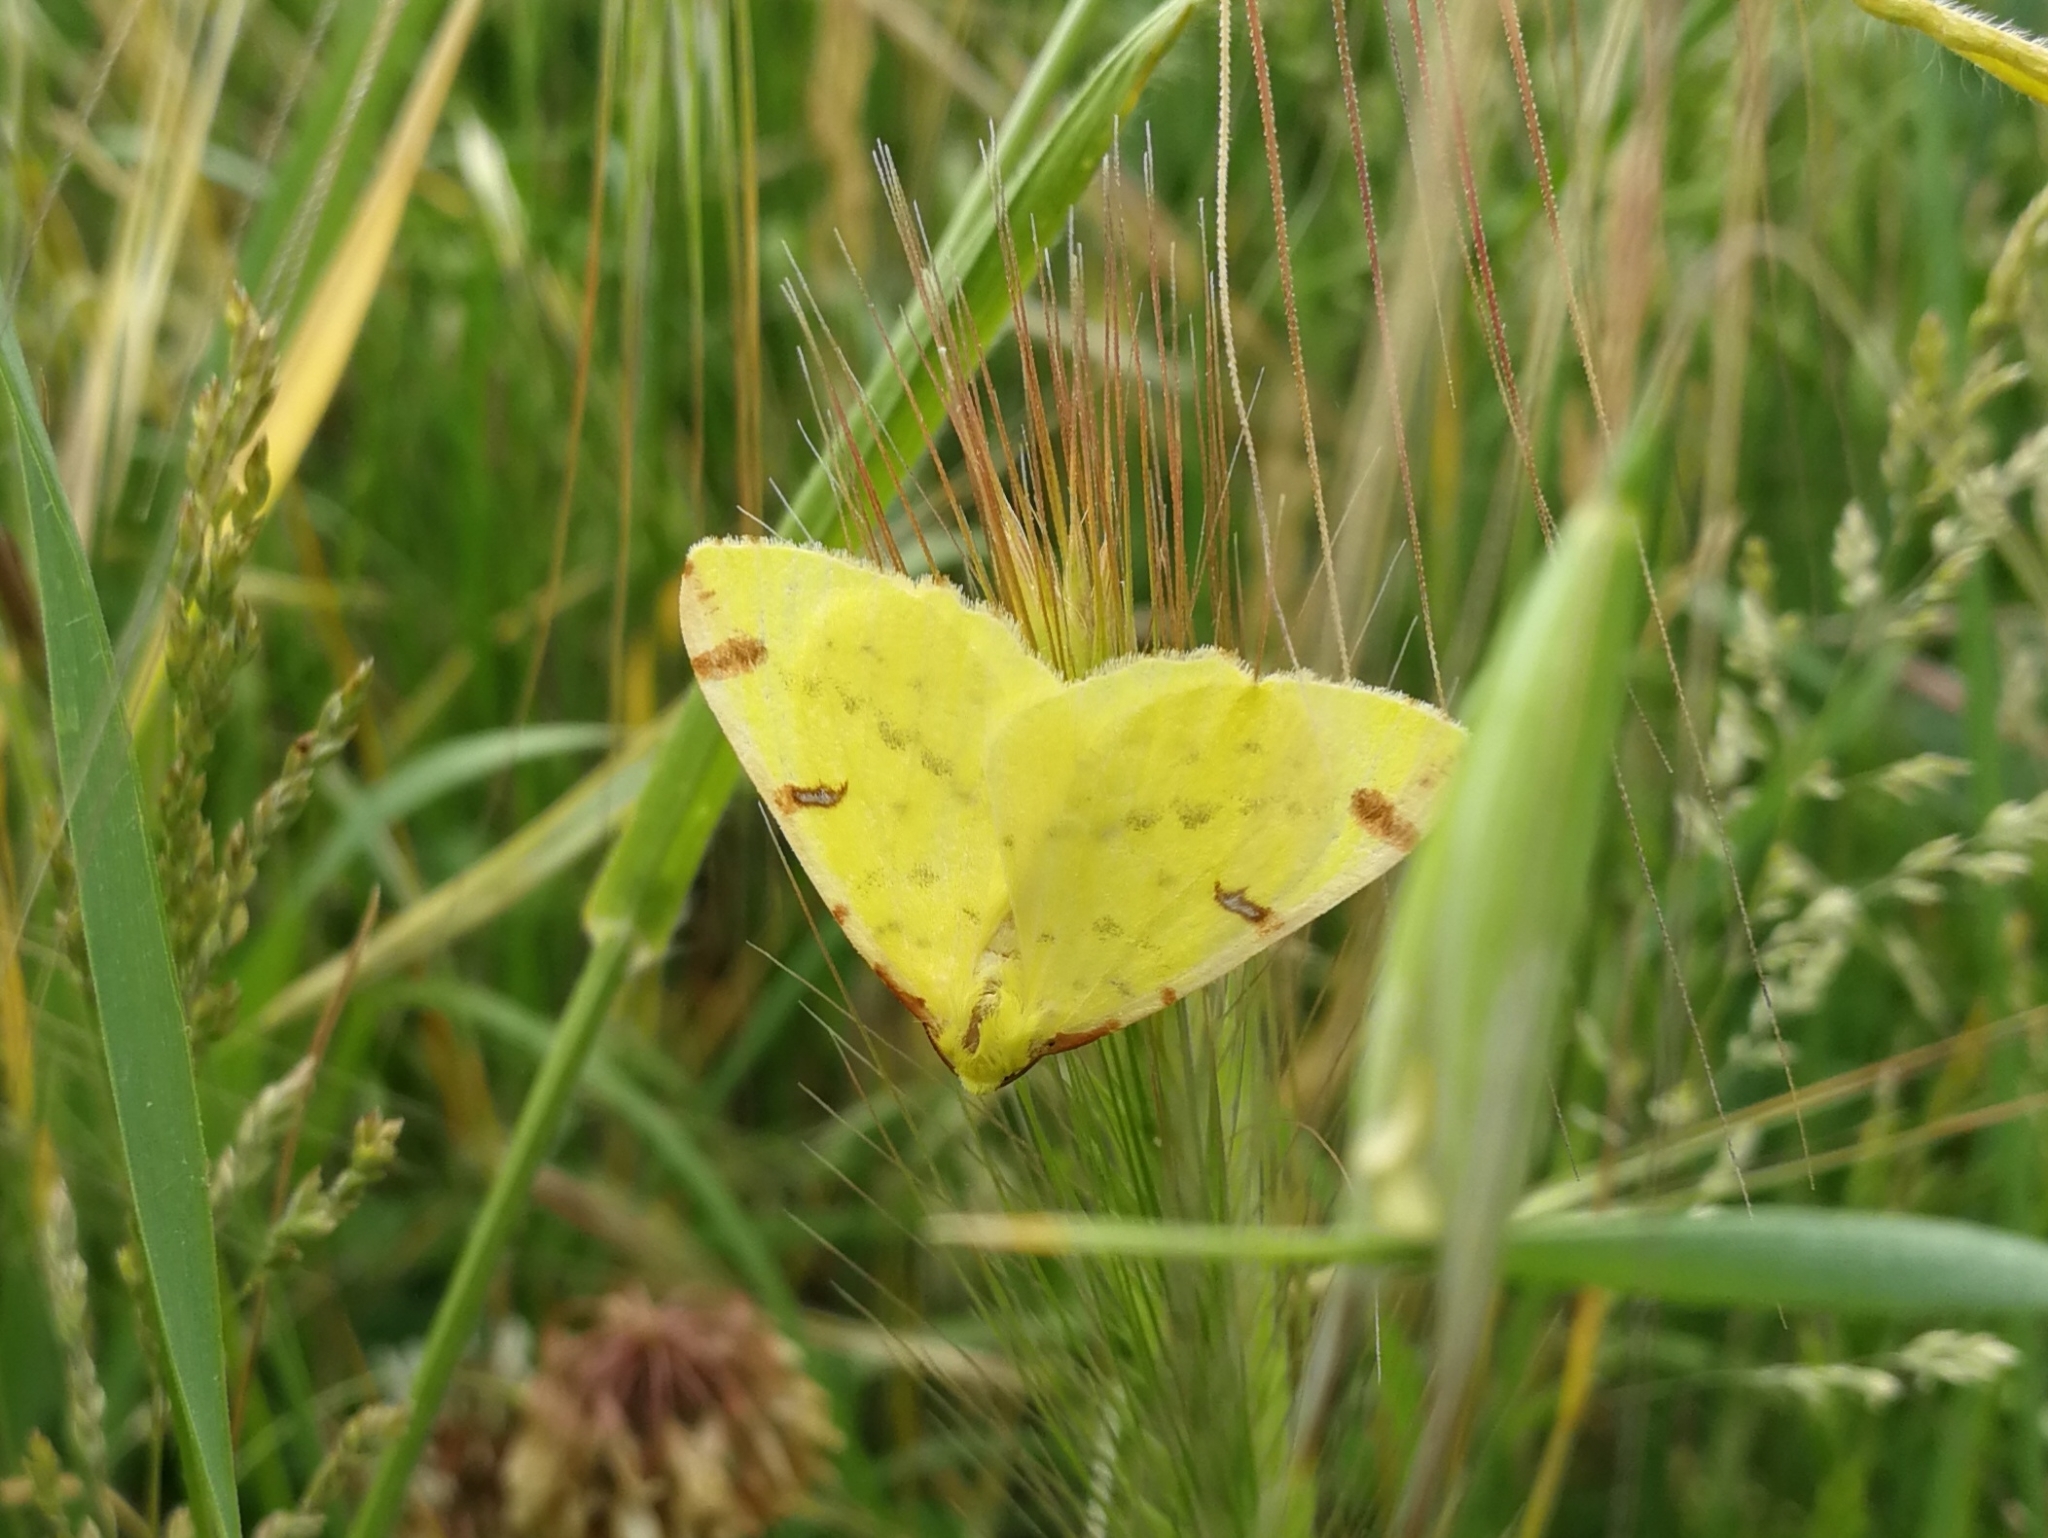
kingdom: Animalia
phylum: Arthropoda
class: Insecta
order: Lepidoptera
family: Geometridae
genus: Opisthograptis
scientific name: Opisthograptis luteolata
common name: Brimstone moth
